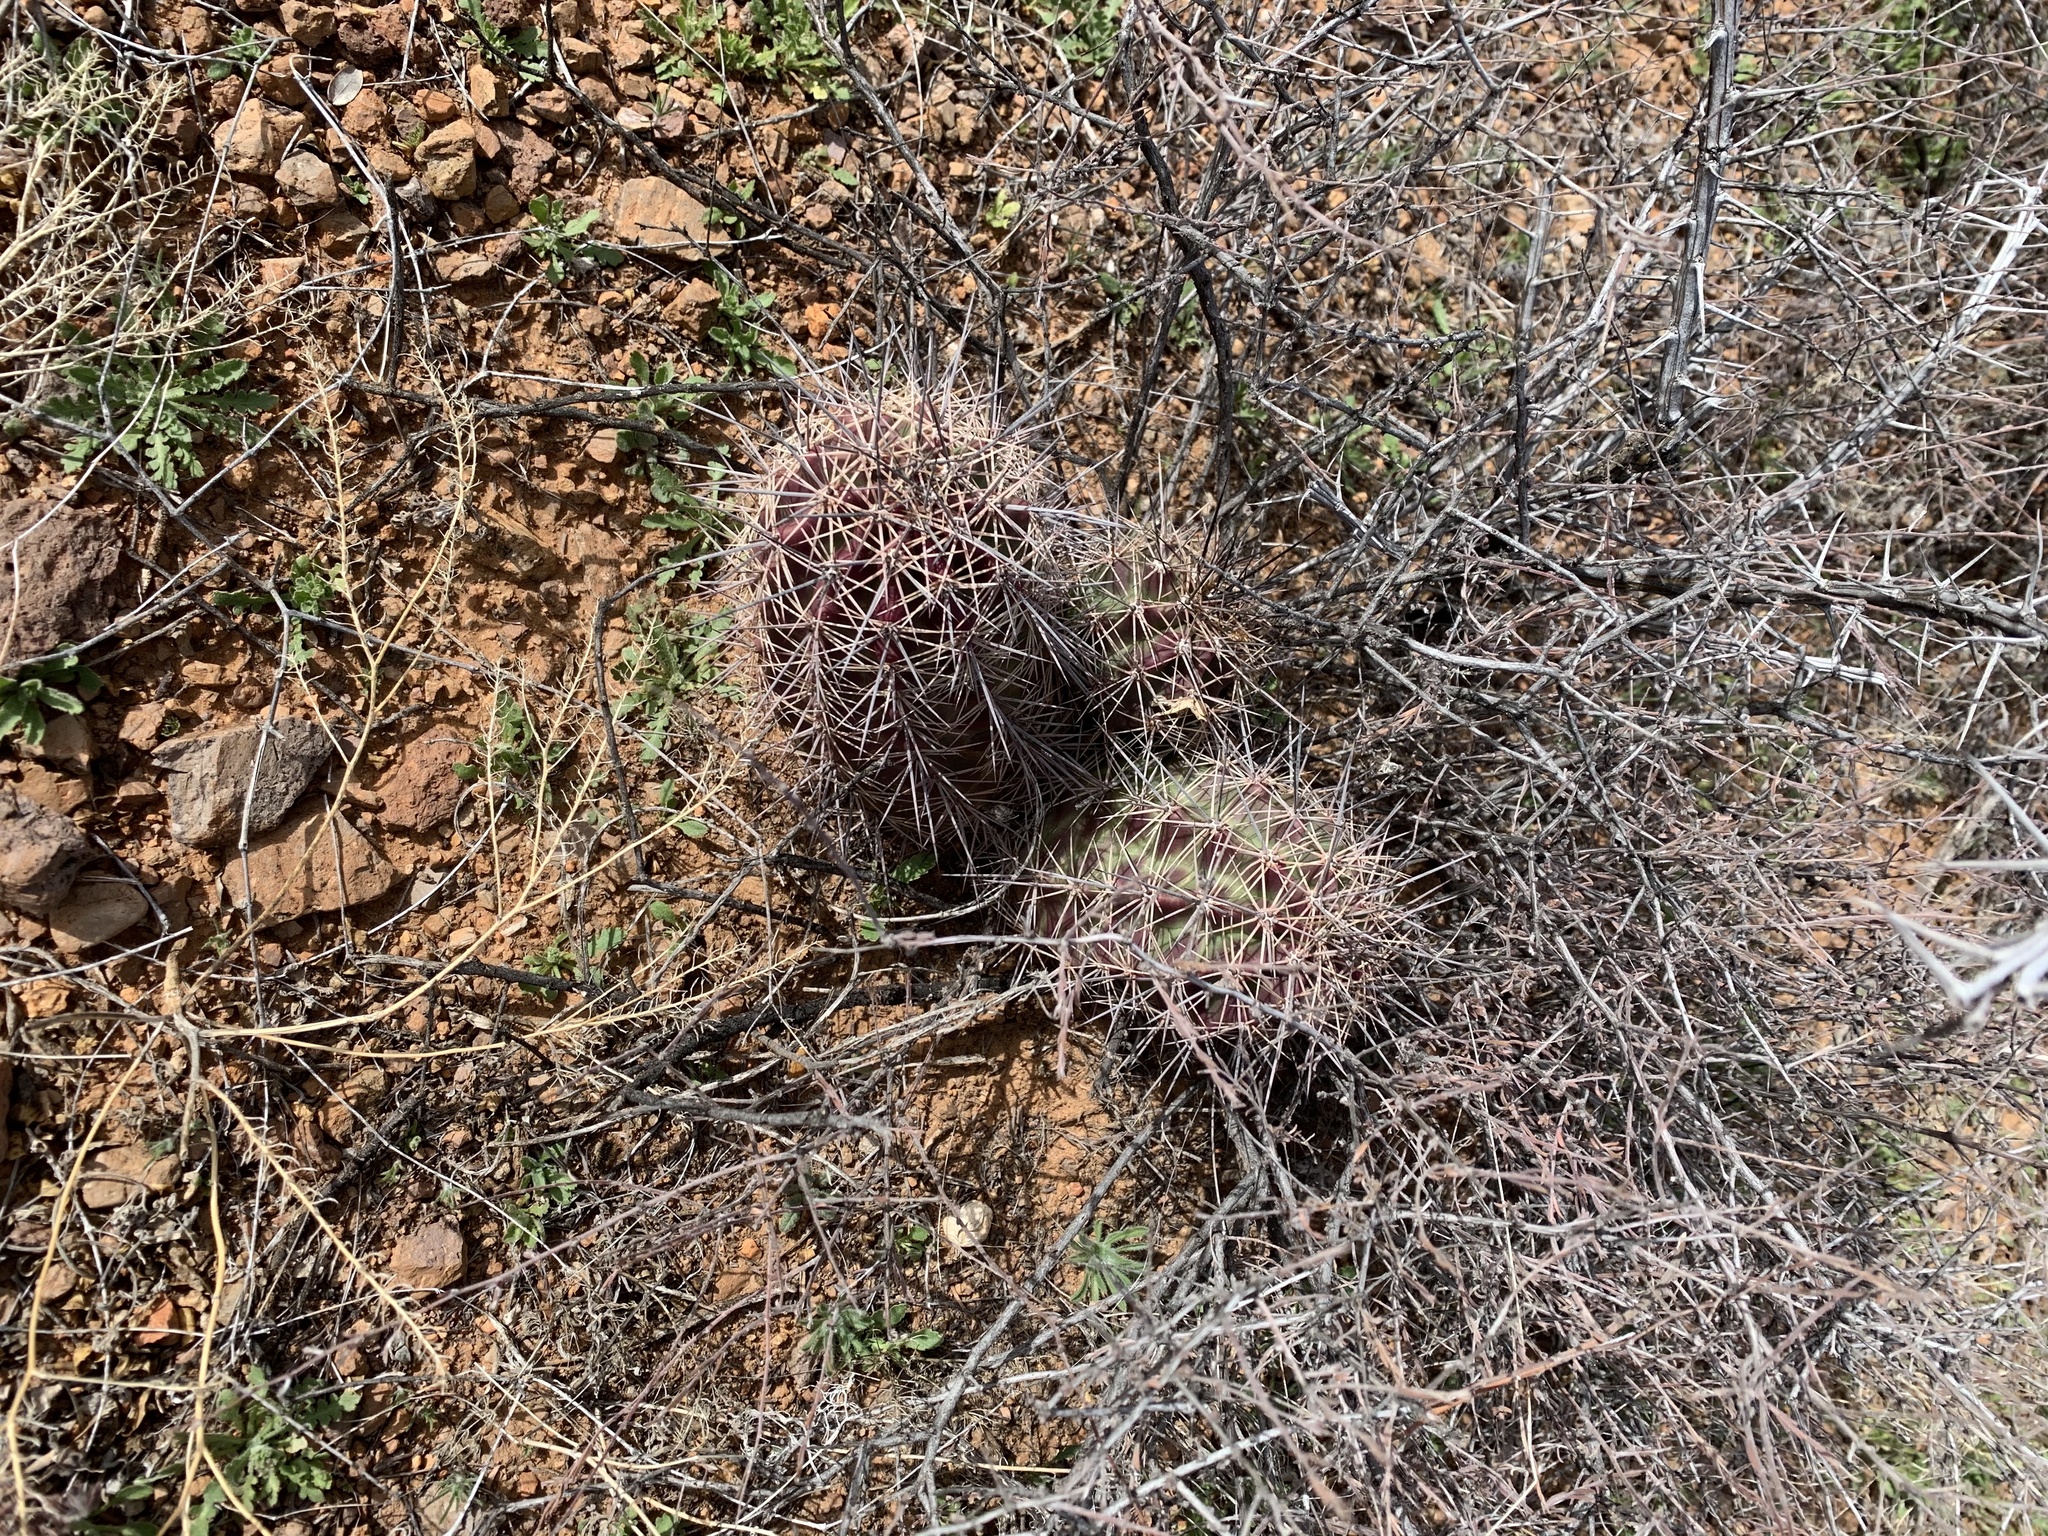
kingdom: Plantae
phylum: Tracheophyta
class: Magnoliopsida
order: Caryophyllales
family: Cactaceae
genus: Echinocereus
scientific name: Echinocereus coccineus
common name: Scarlet hedgehog cactus
